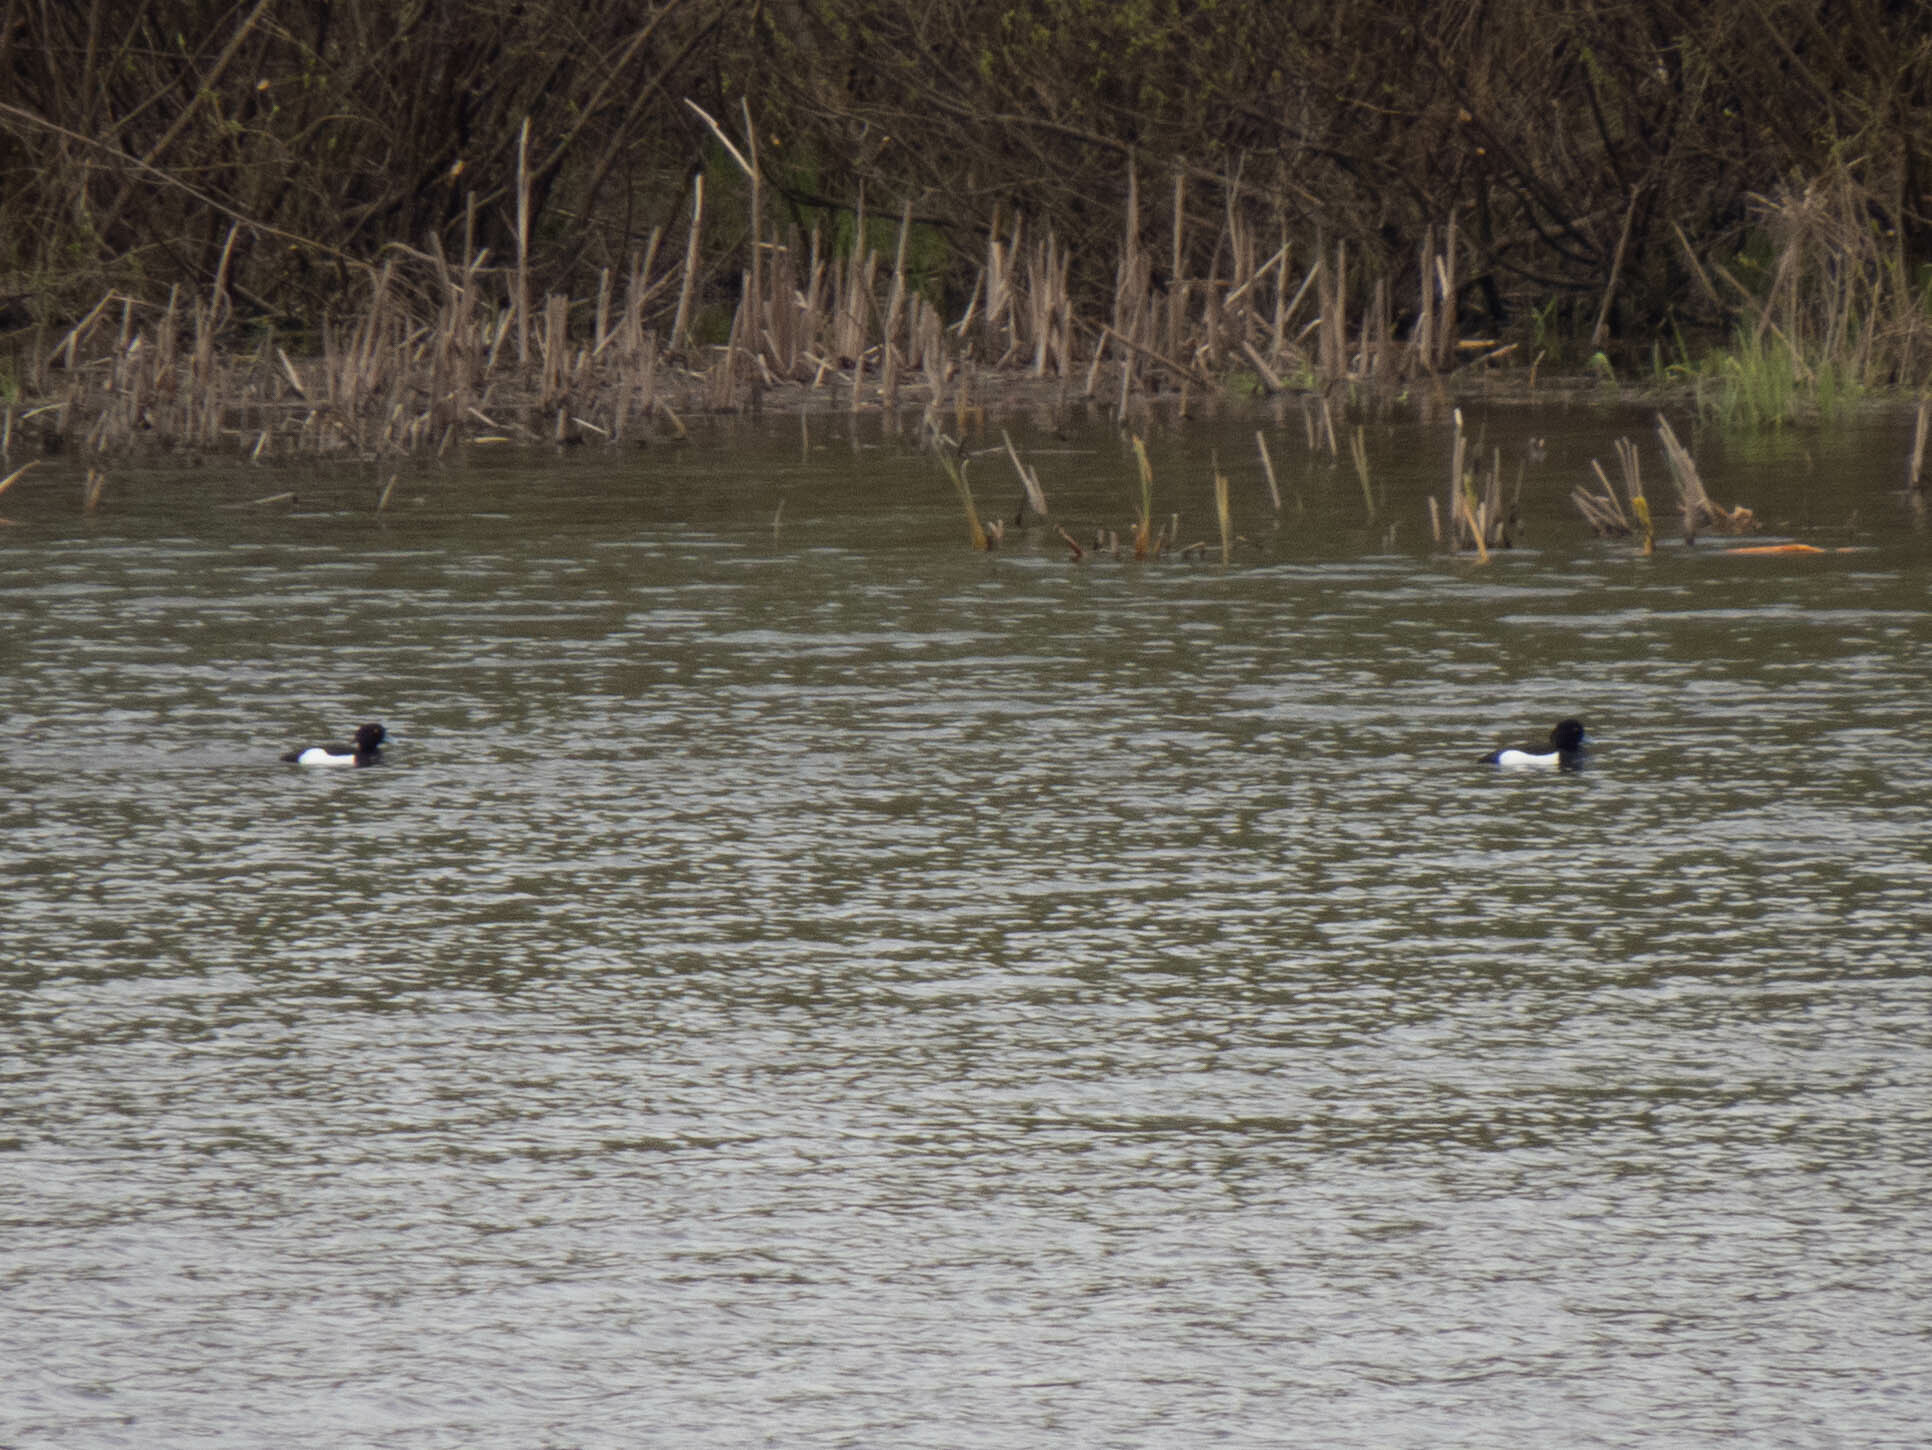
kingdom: Animalia
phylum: Chordata
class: Aves
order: Anseriformes
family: Anatidae
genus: Aythya
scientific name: Aythya fuligula
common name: Tufted duck
